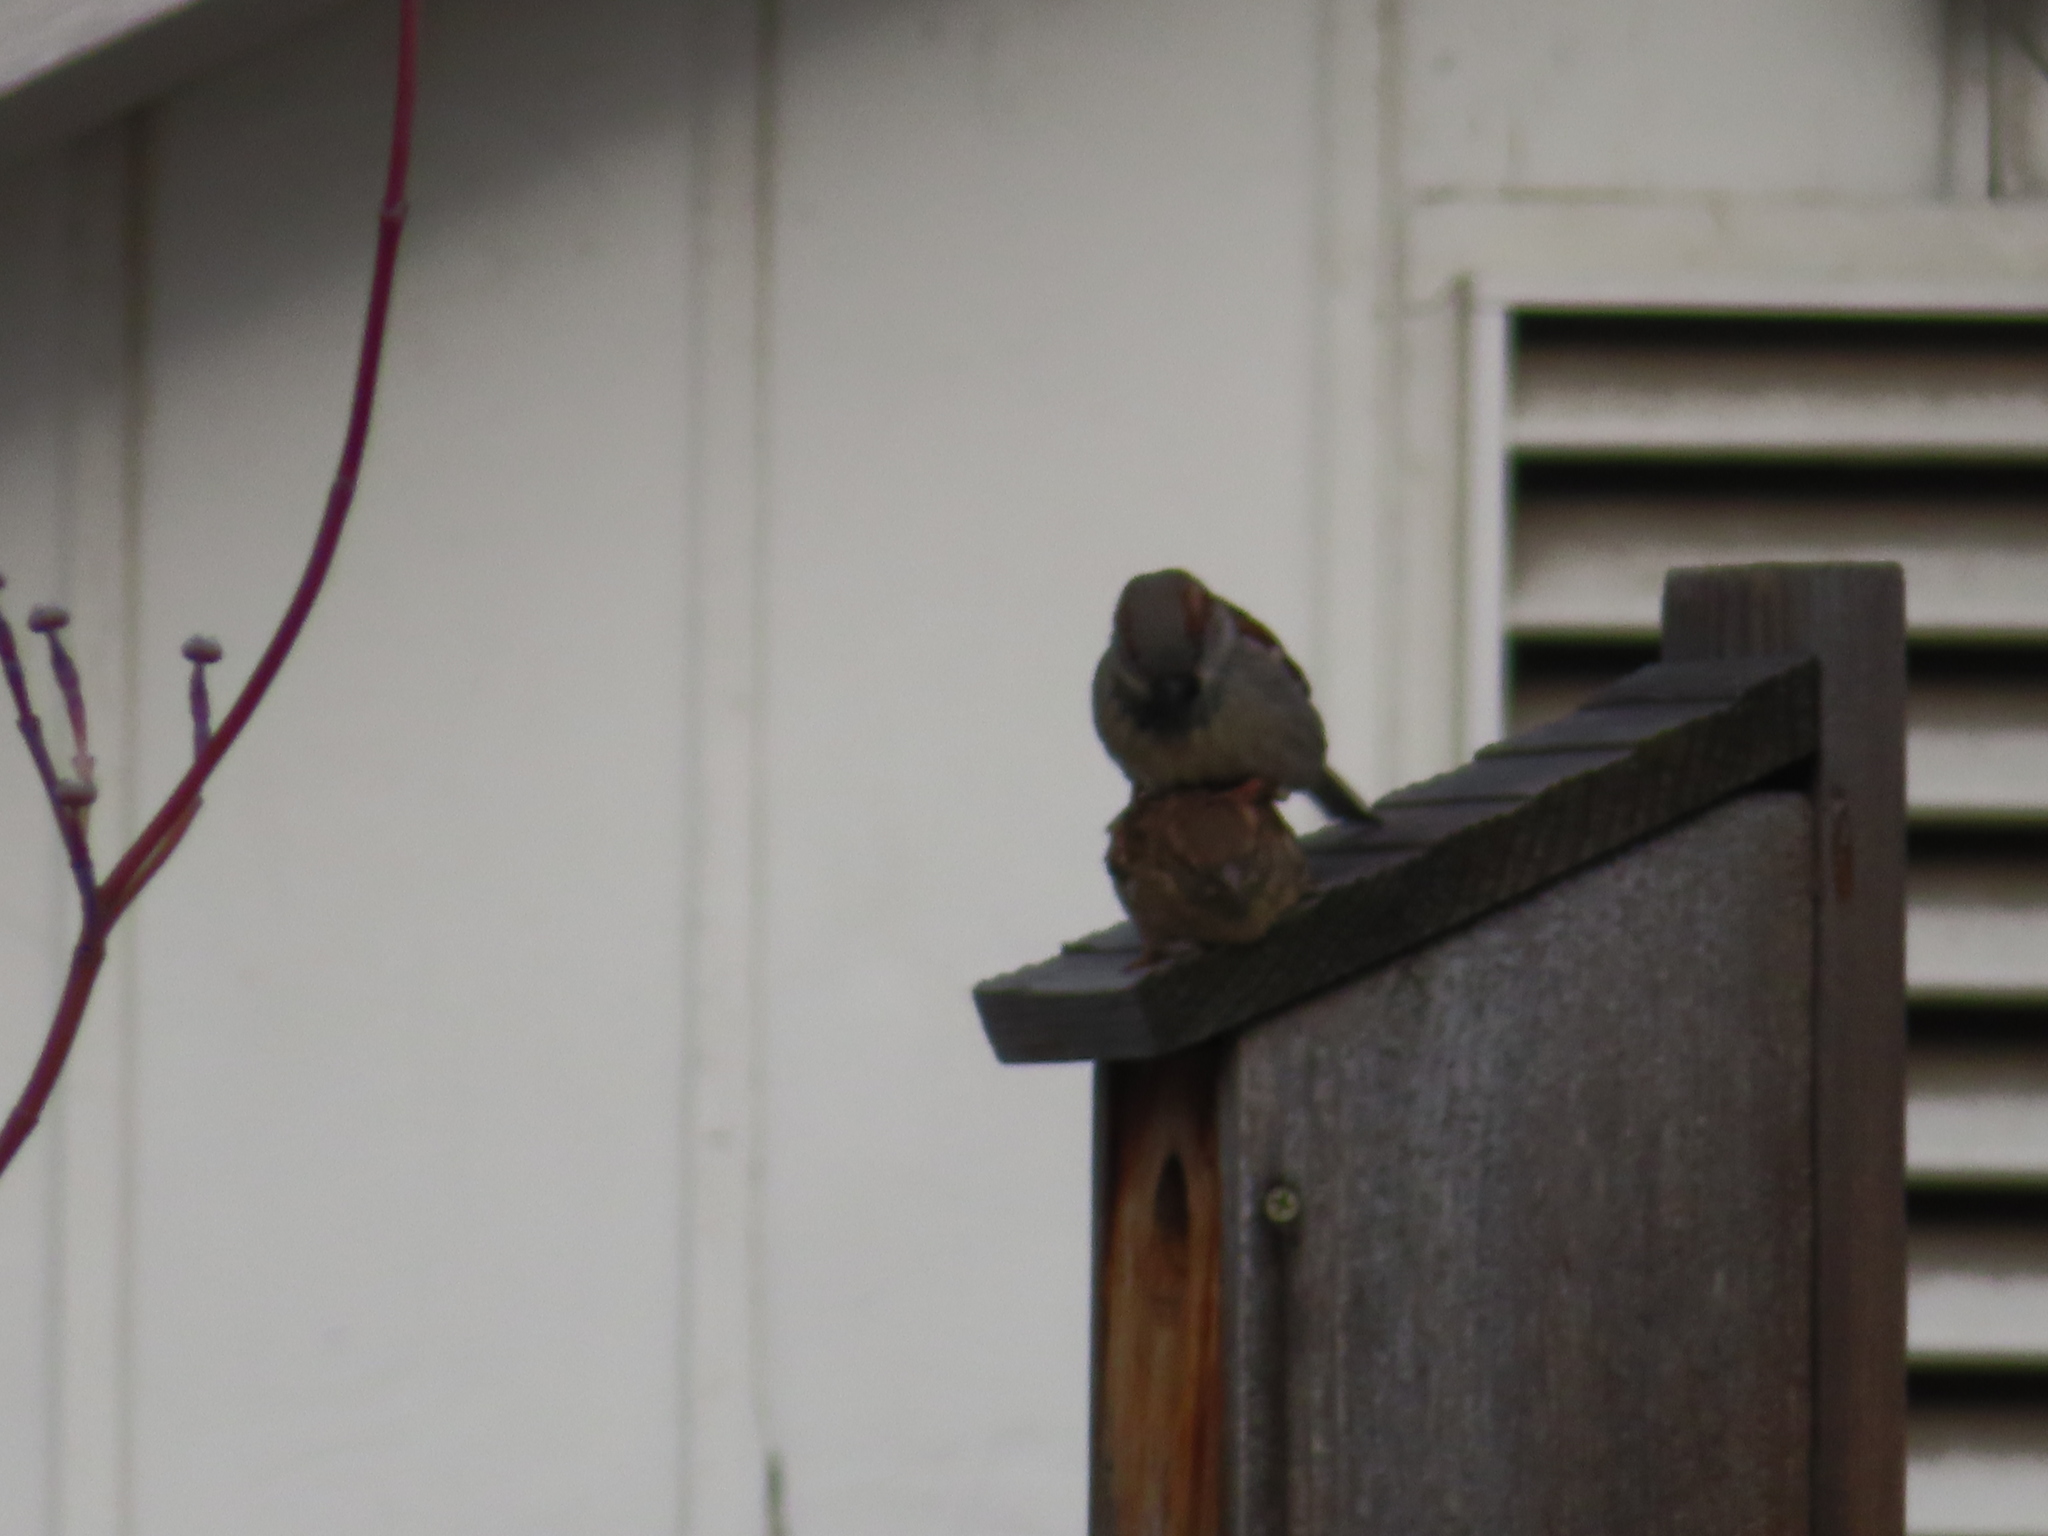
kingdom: Animalia
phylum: Chordata
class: Aves
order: Passeriformes
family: Passeridae
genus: Passer
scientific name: Passer domesticus
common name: House sparrow
